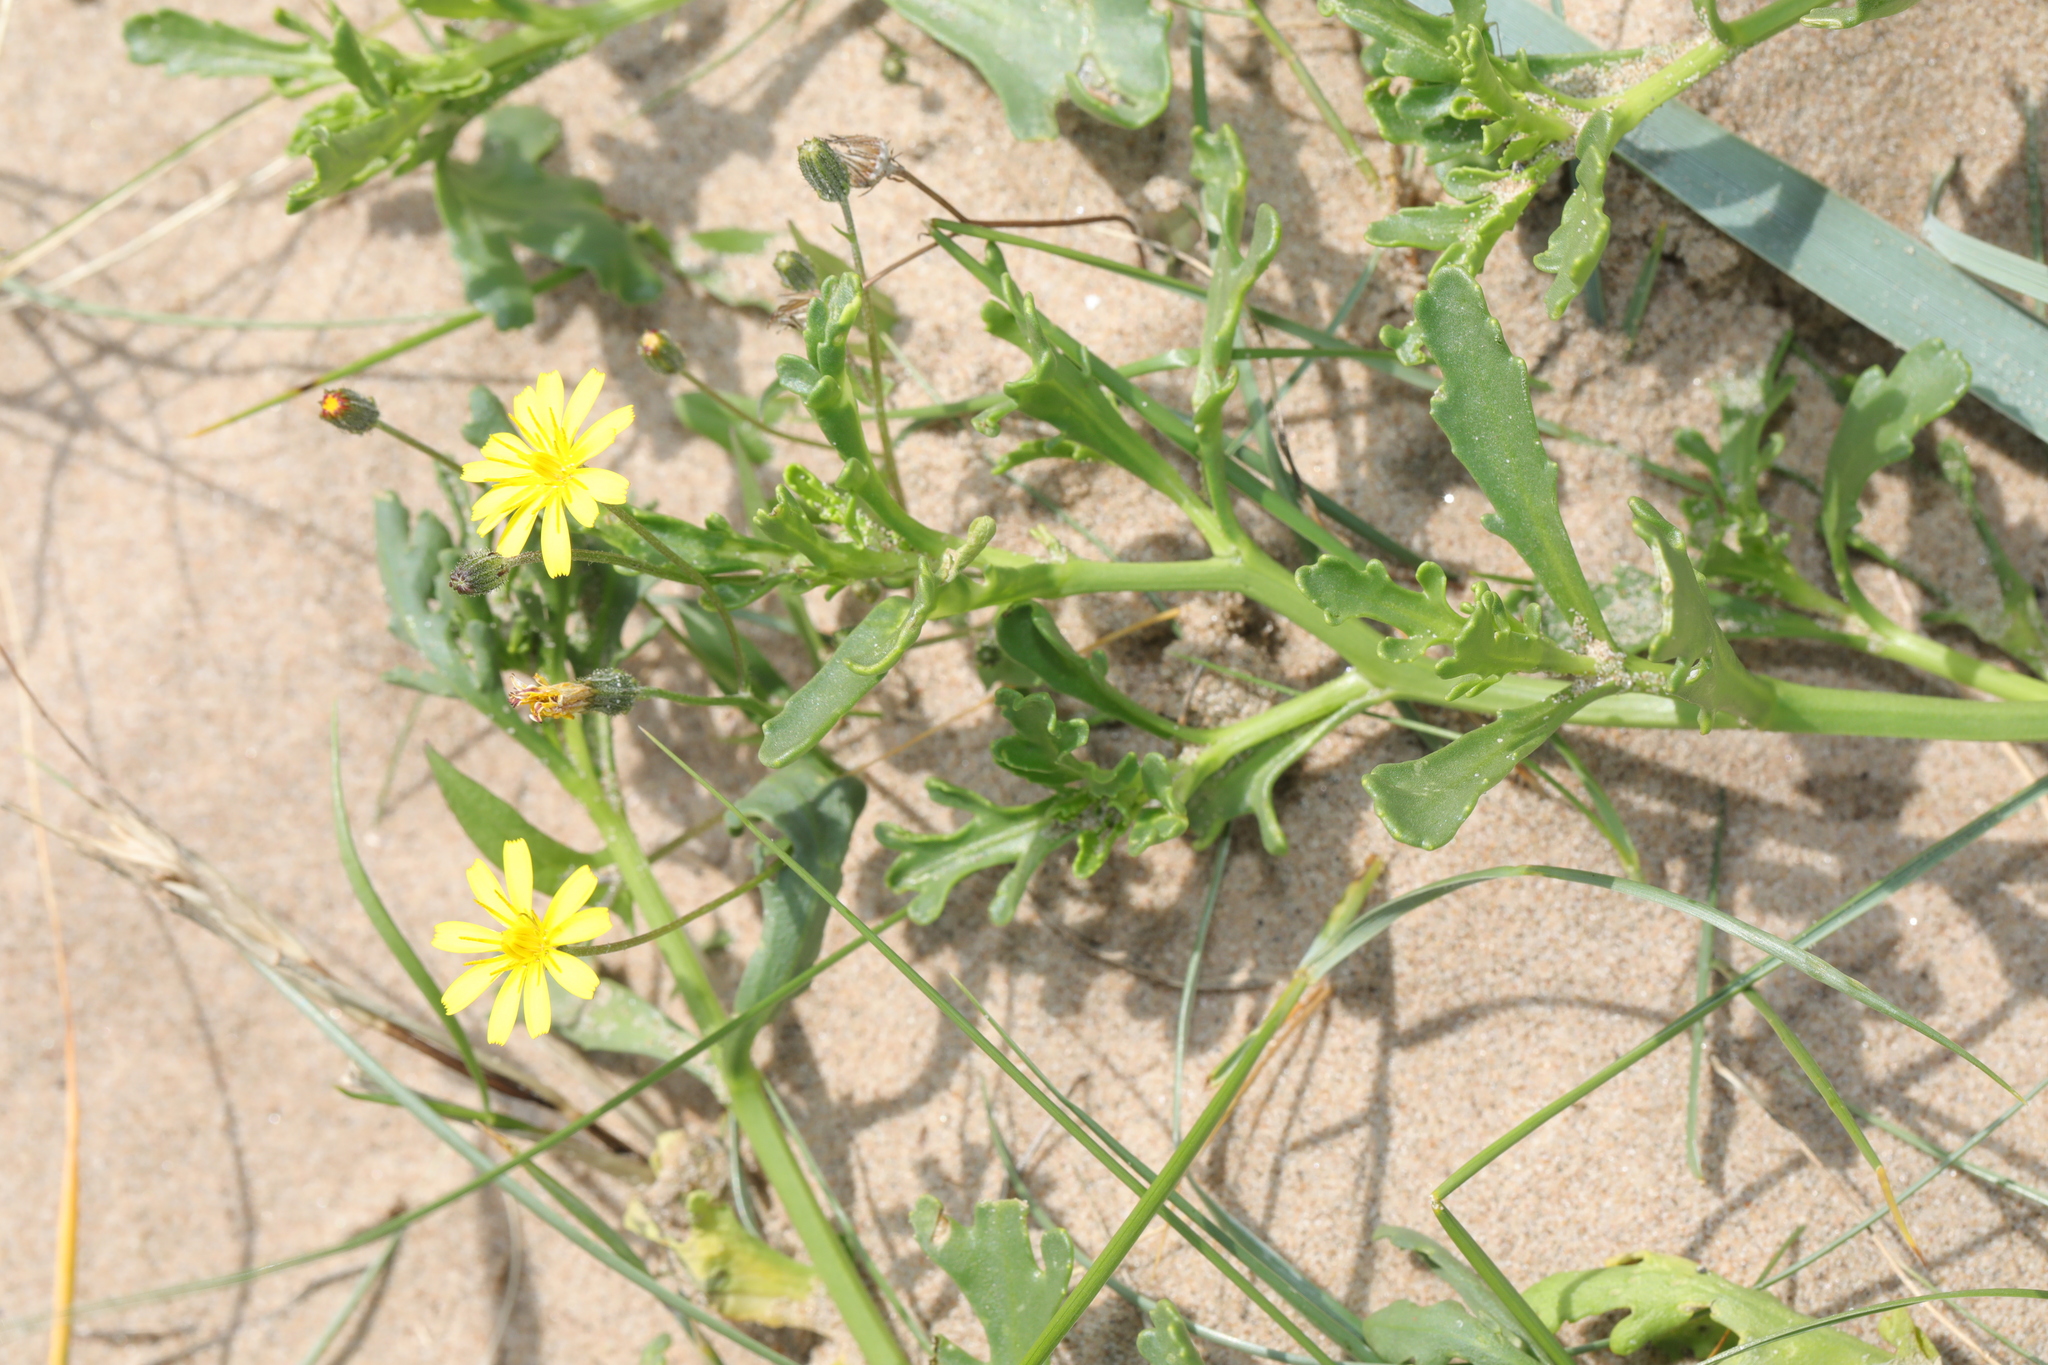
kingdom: Plantae
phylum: Tracheophyta
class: Magnoliopsida
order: Asterales
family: Asteraceae
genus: Lapsana
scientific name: Lapsana communis
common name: Nipplewort
